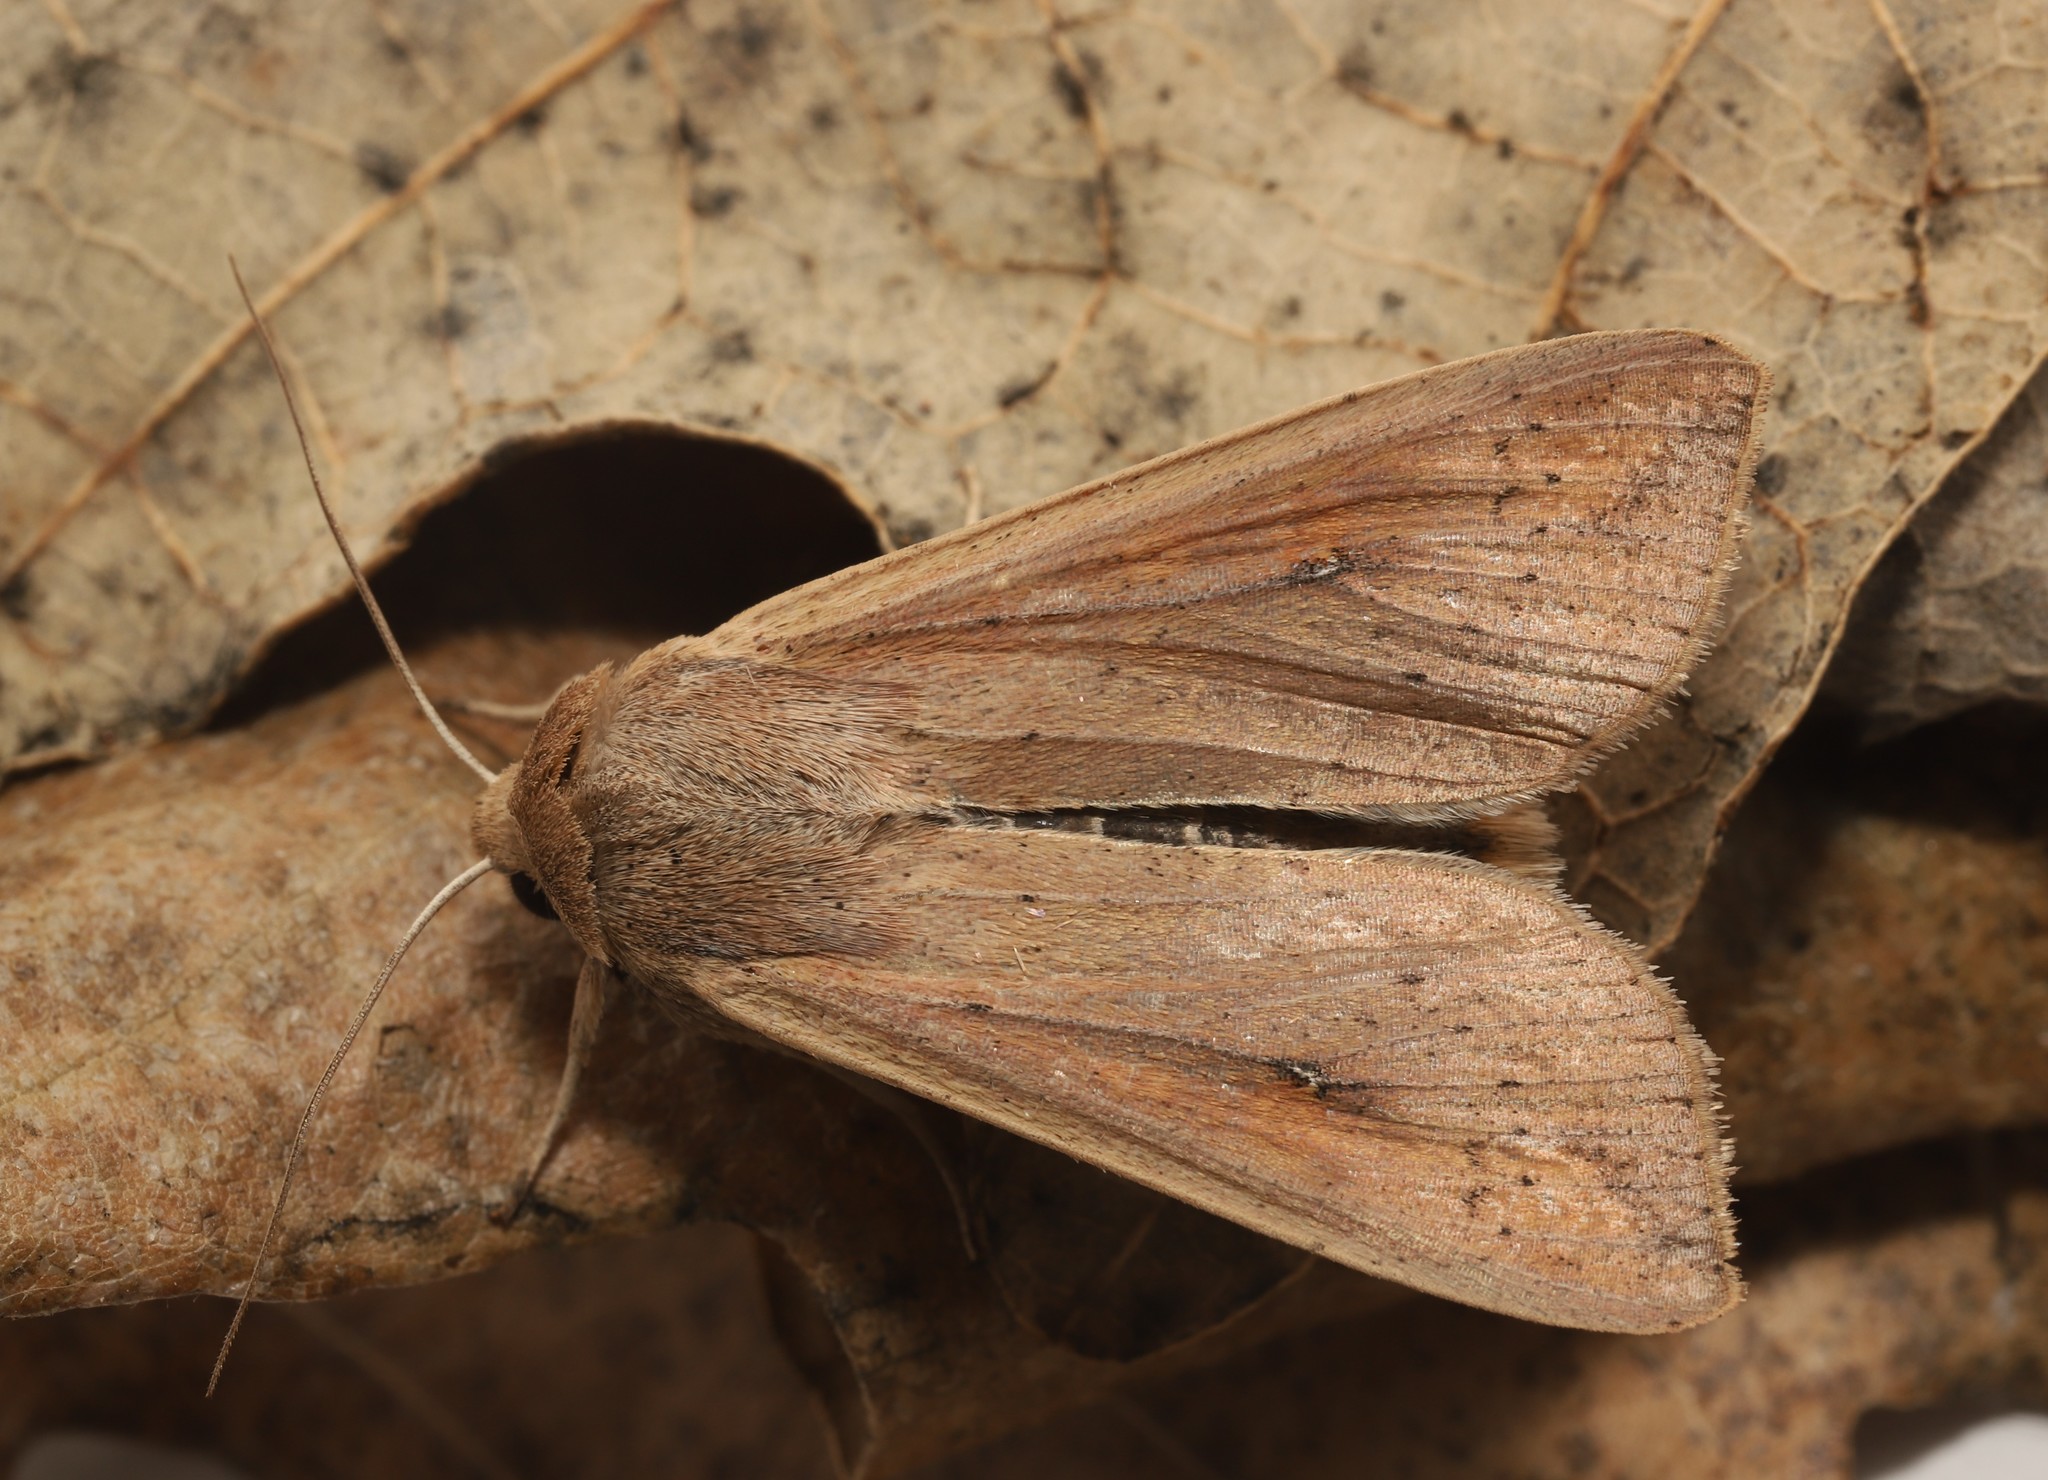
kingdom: Animalia
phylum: Arthropoda
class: Insecta
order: Lepidoptera
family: Noctuidae
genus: Mythimna
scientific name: Mythimna unipuncta
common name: White-speck
